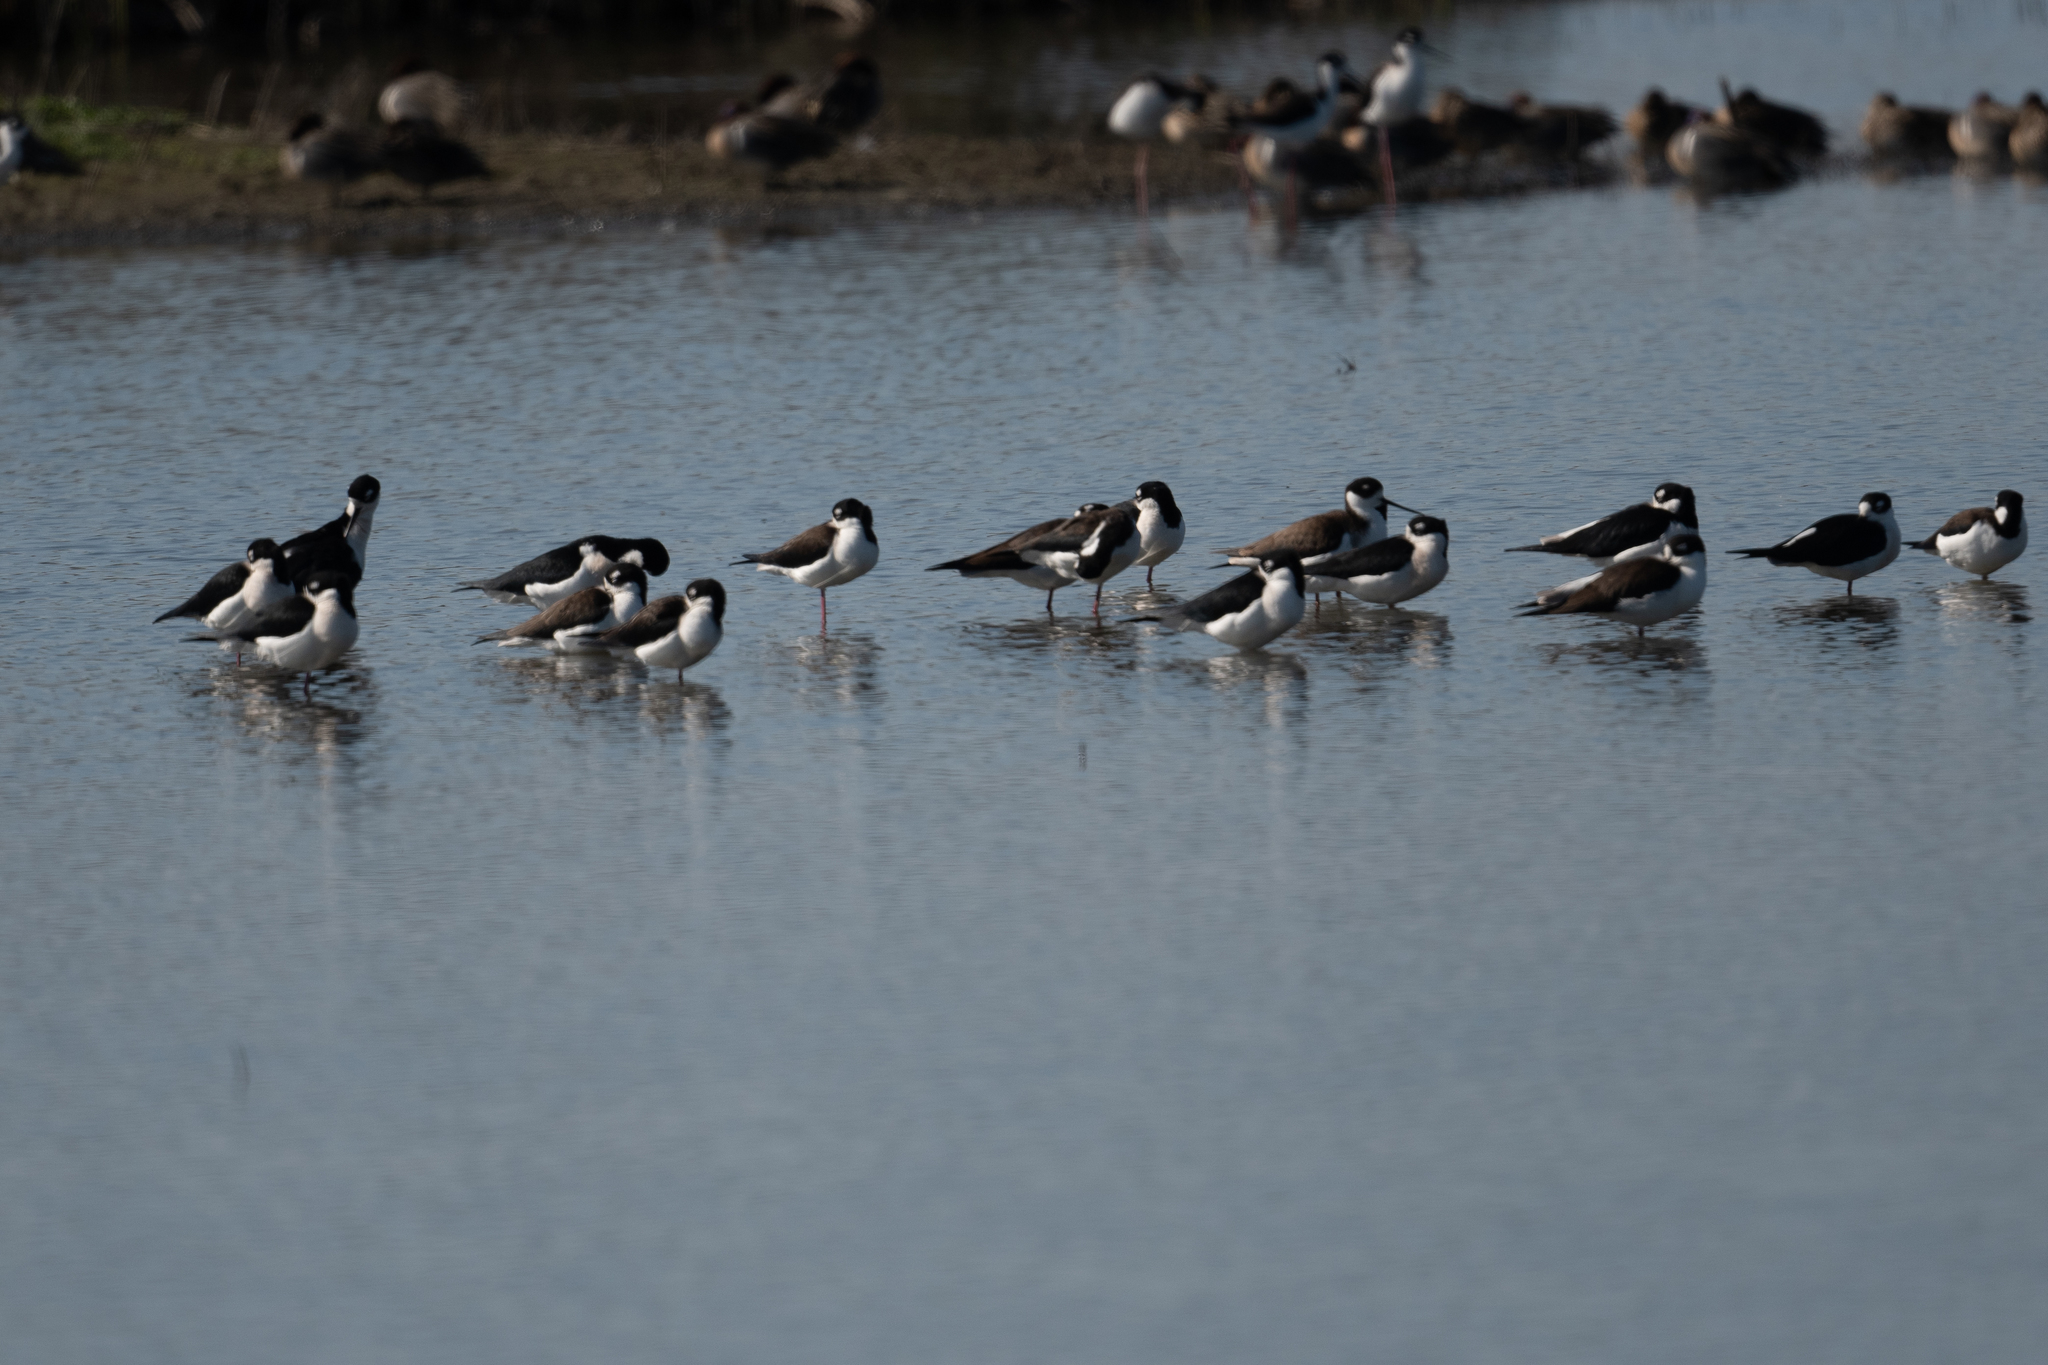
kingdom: Animalia
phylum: Chordata
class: Aves
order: Charadriiformes
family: Recurvirostridae
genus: Himantopus
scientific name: Himantopus mexicanus
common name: Black-necked stilt
